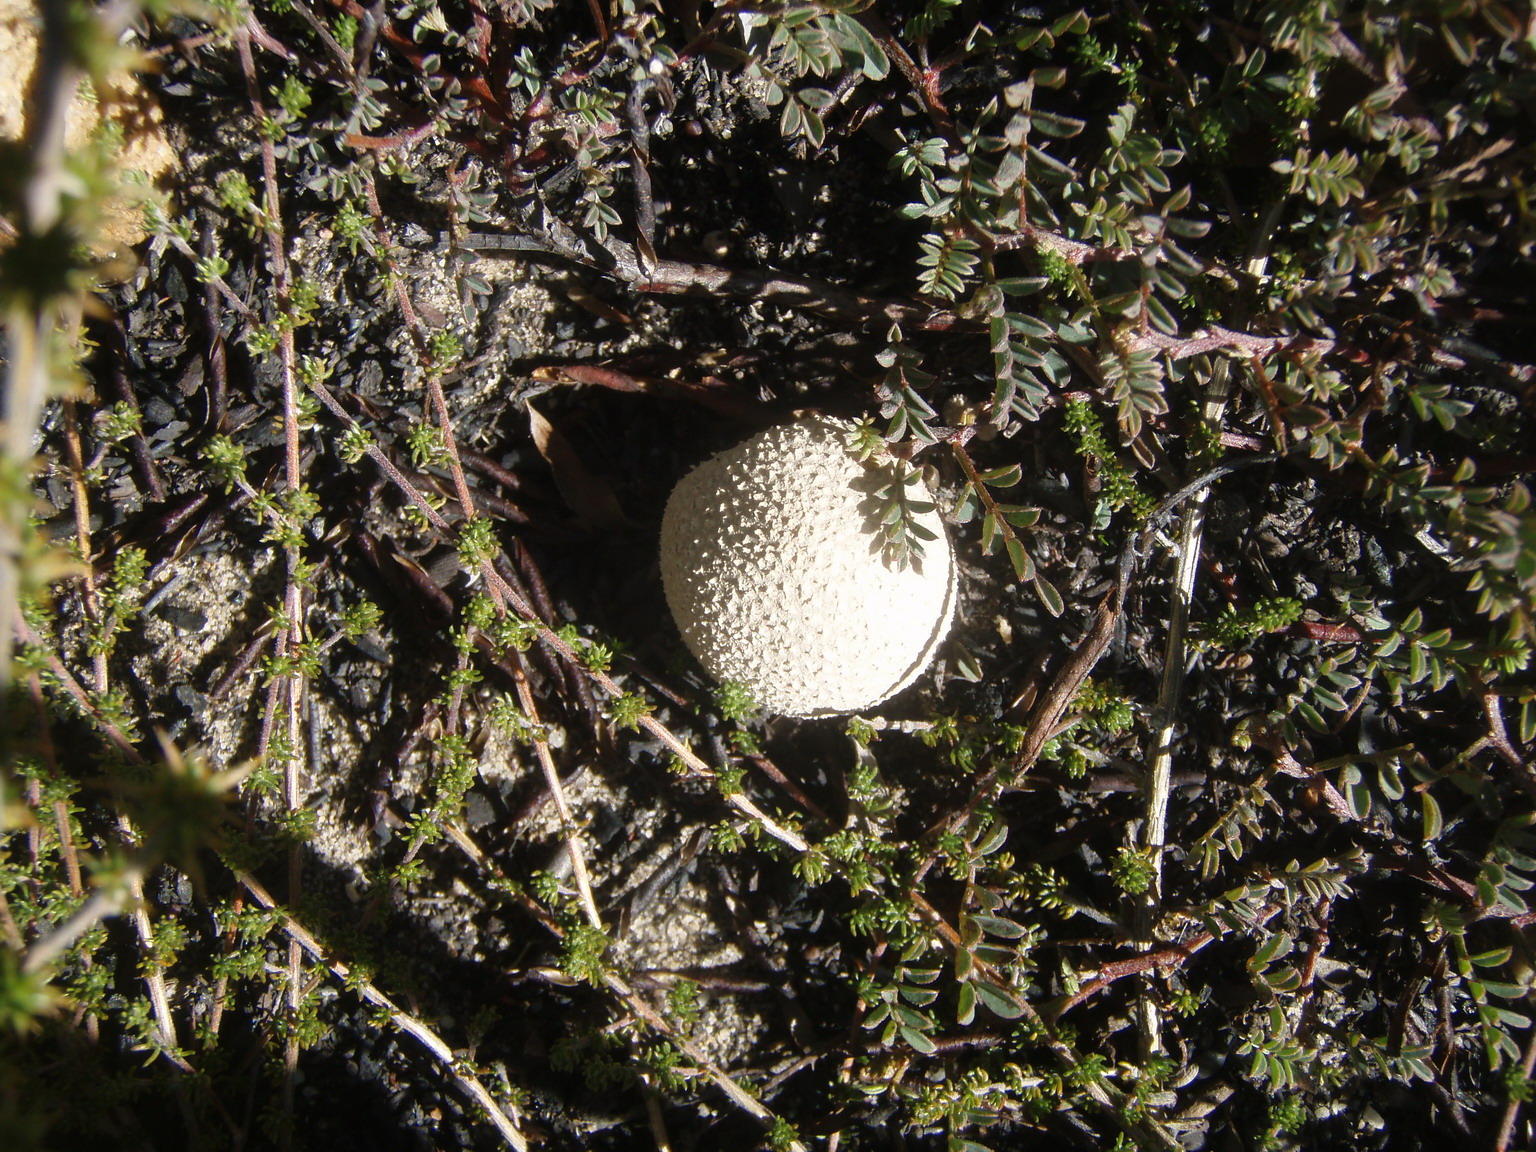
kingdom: Fungi
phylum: Basidiomycota
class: Agaricomycetes
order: Agaricales
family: Lycoperdaceae
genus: Lycoperdon
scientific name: Lycoperdon pratense
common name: Meadow puffball
